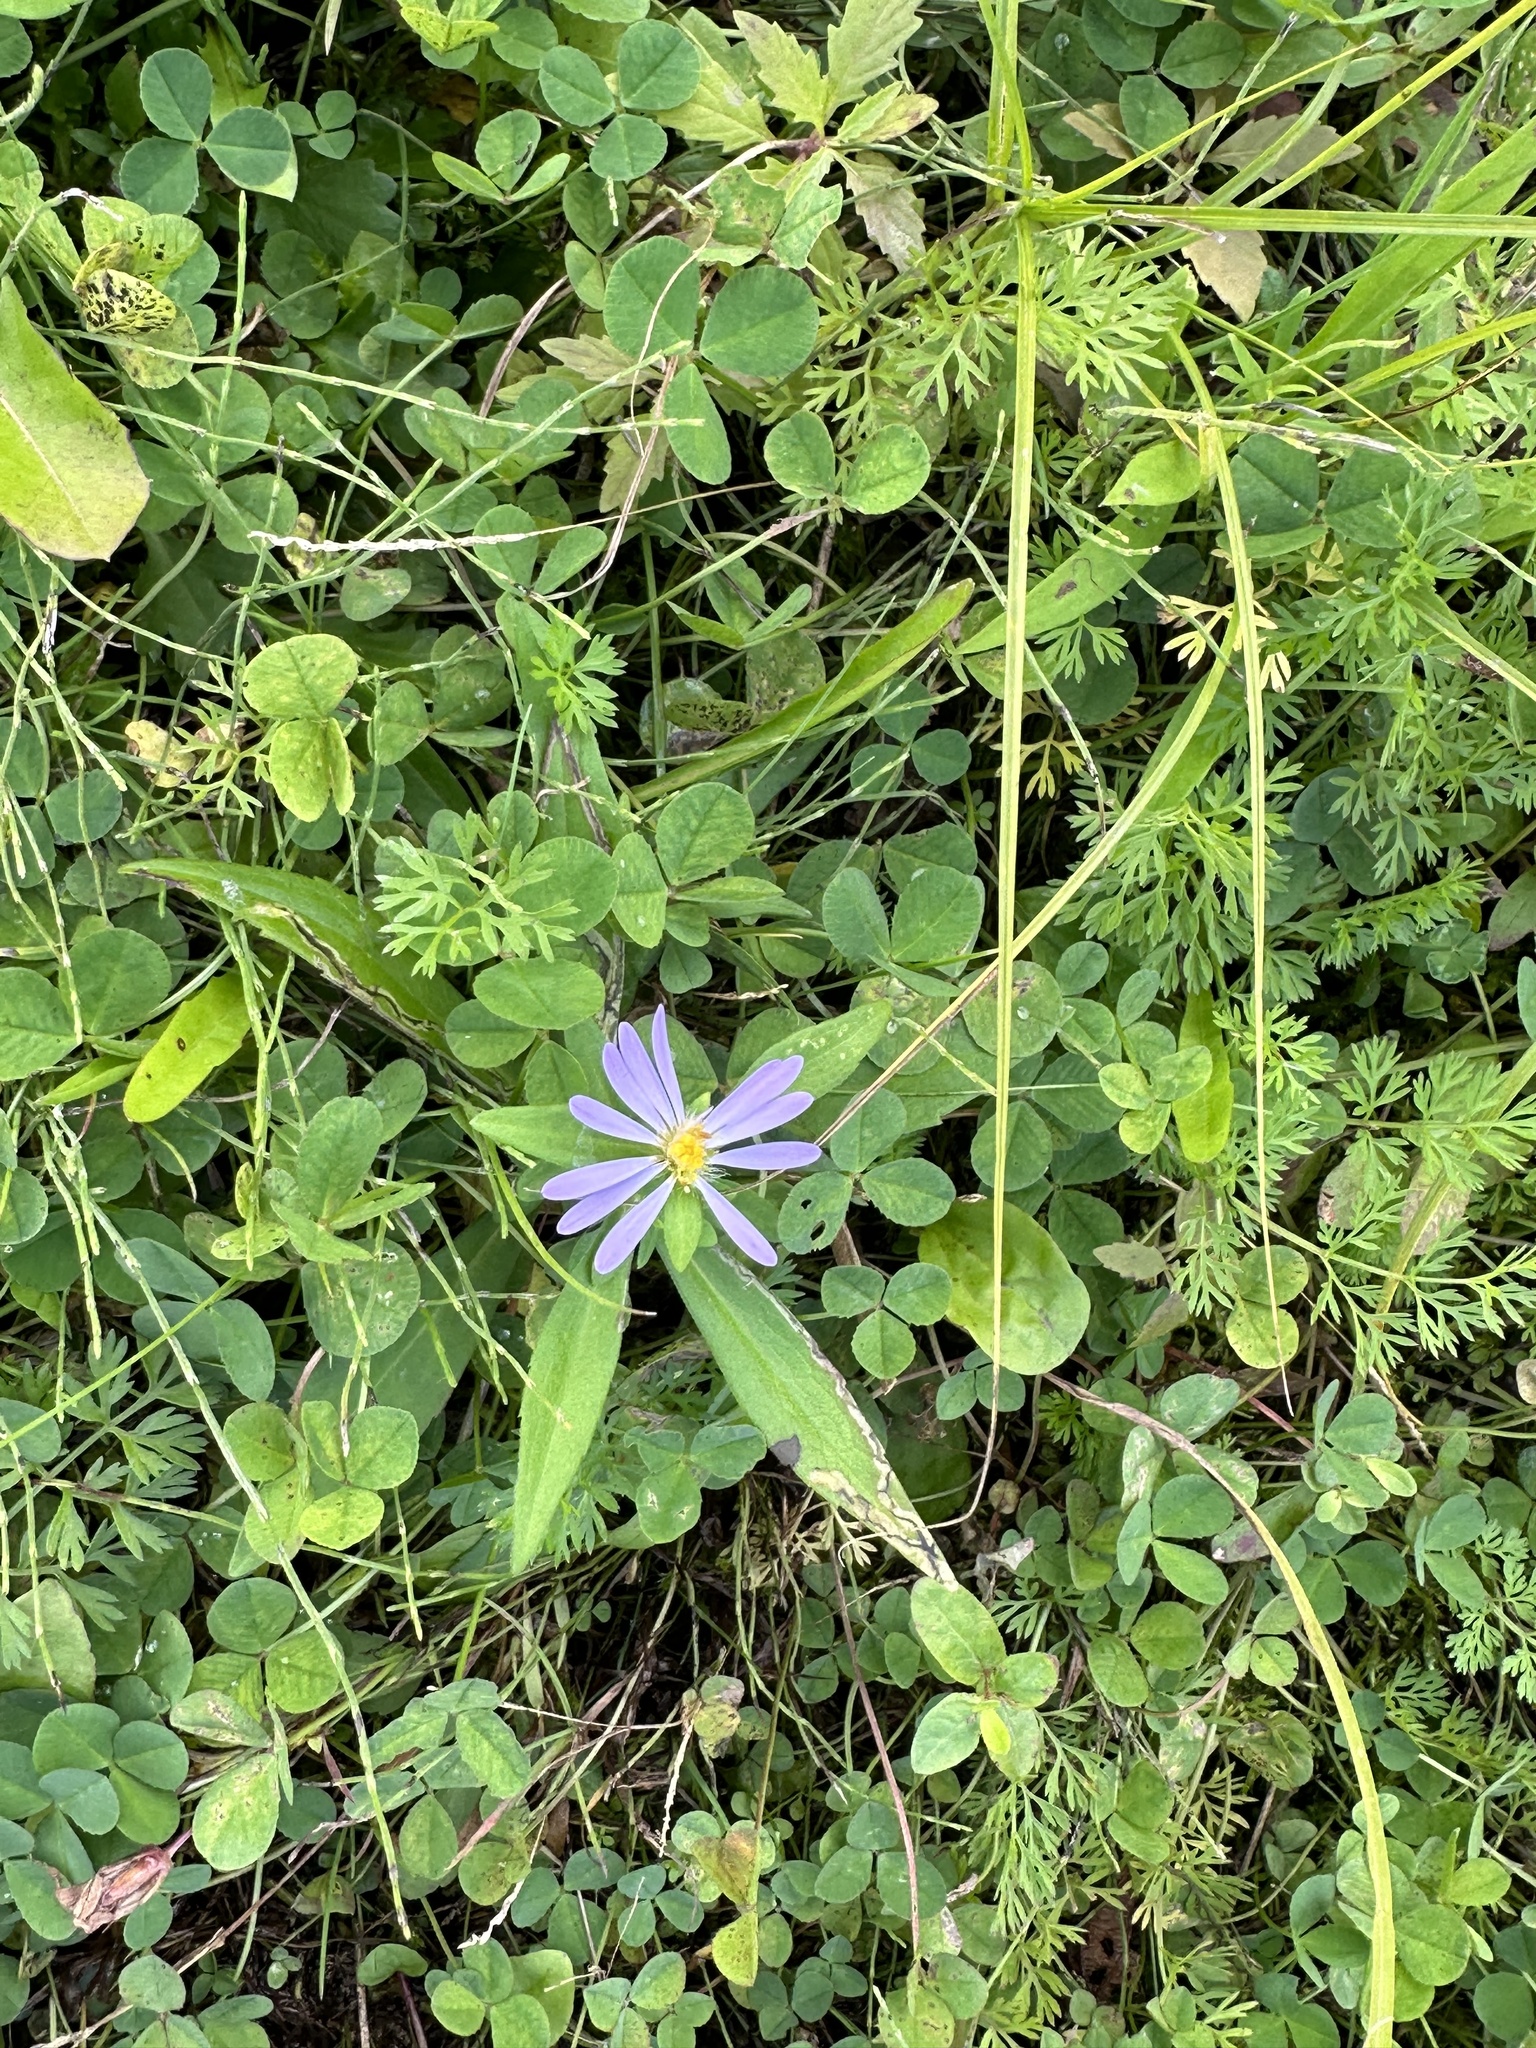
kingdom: Plantae
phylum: Tracheophyta
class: Magnoliopsida
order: Asterales
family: Asteraceae
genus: Symphyotrichum
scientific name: Symphyotrichum novi-belgii
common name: Michaelmas daisy
